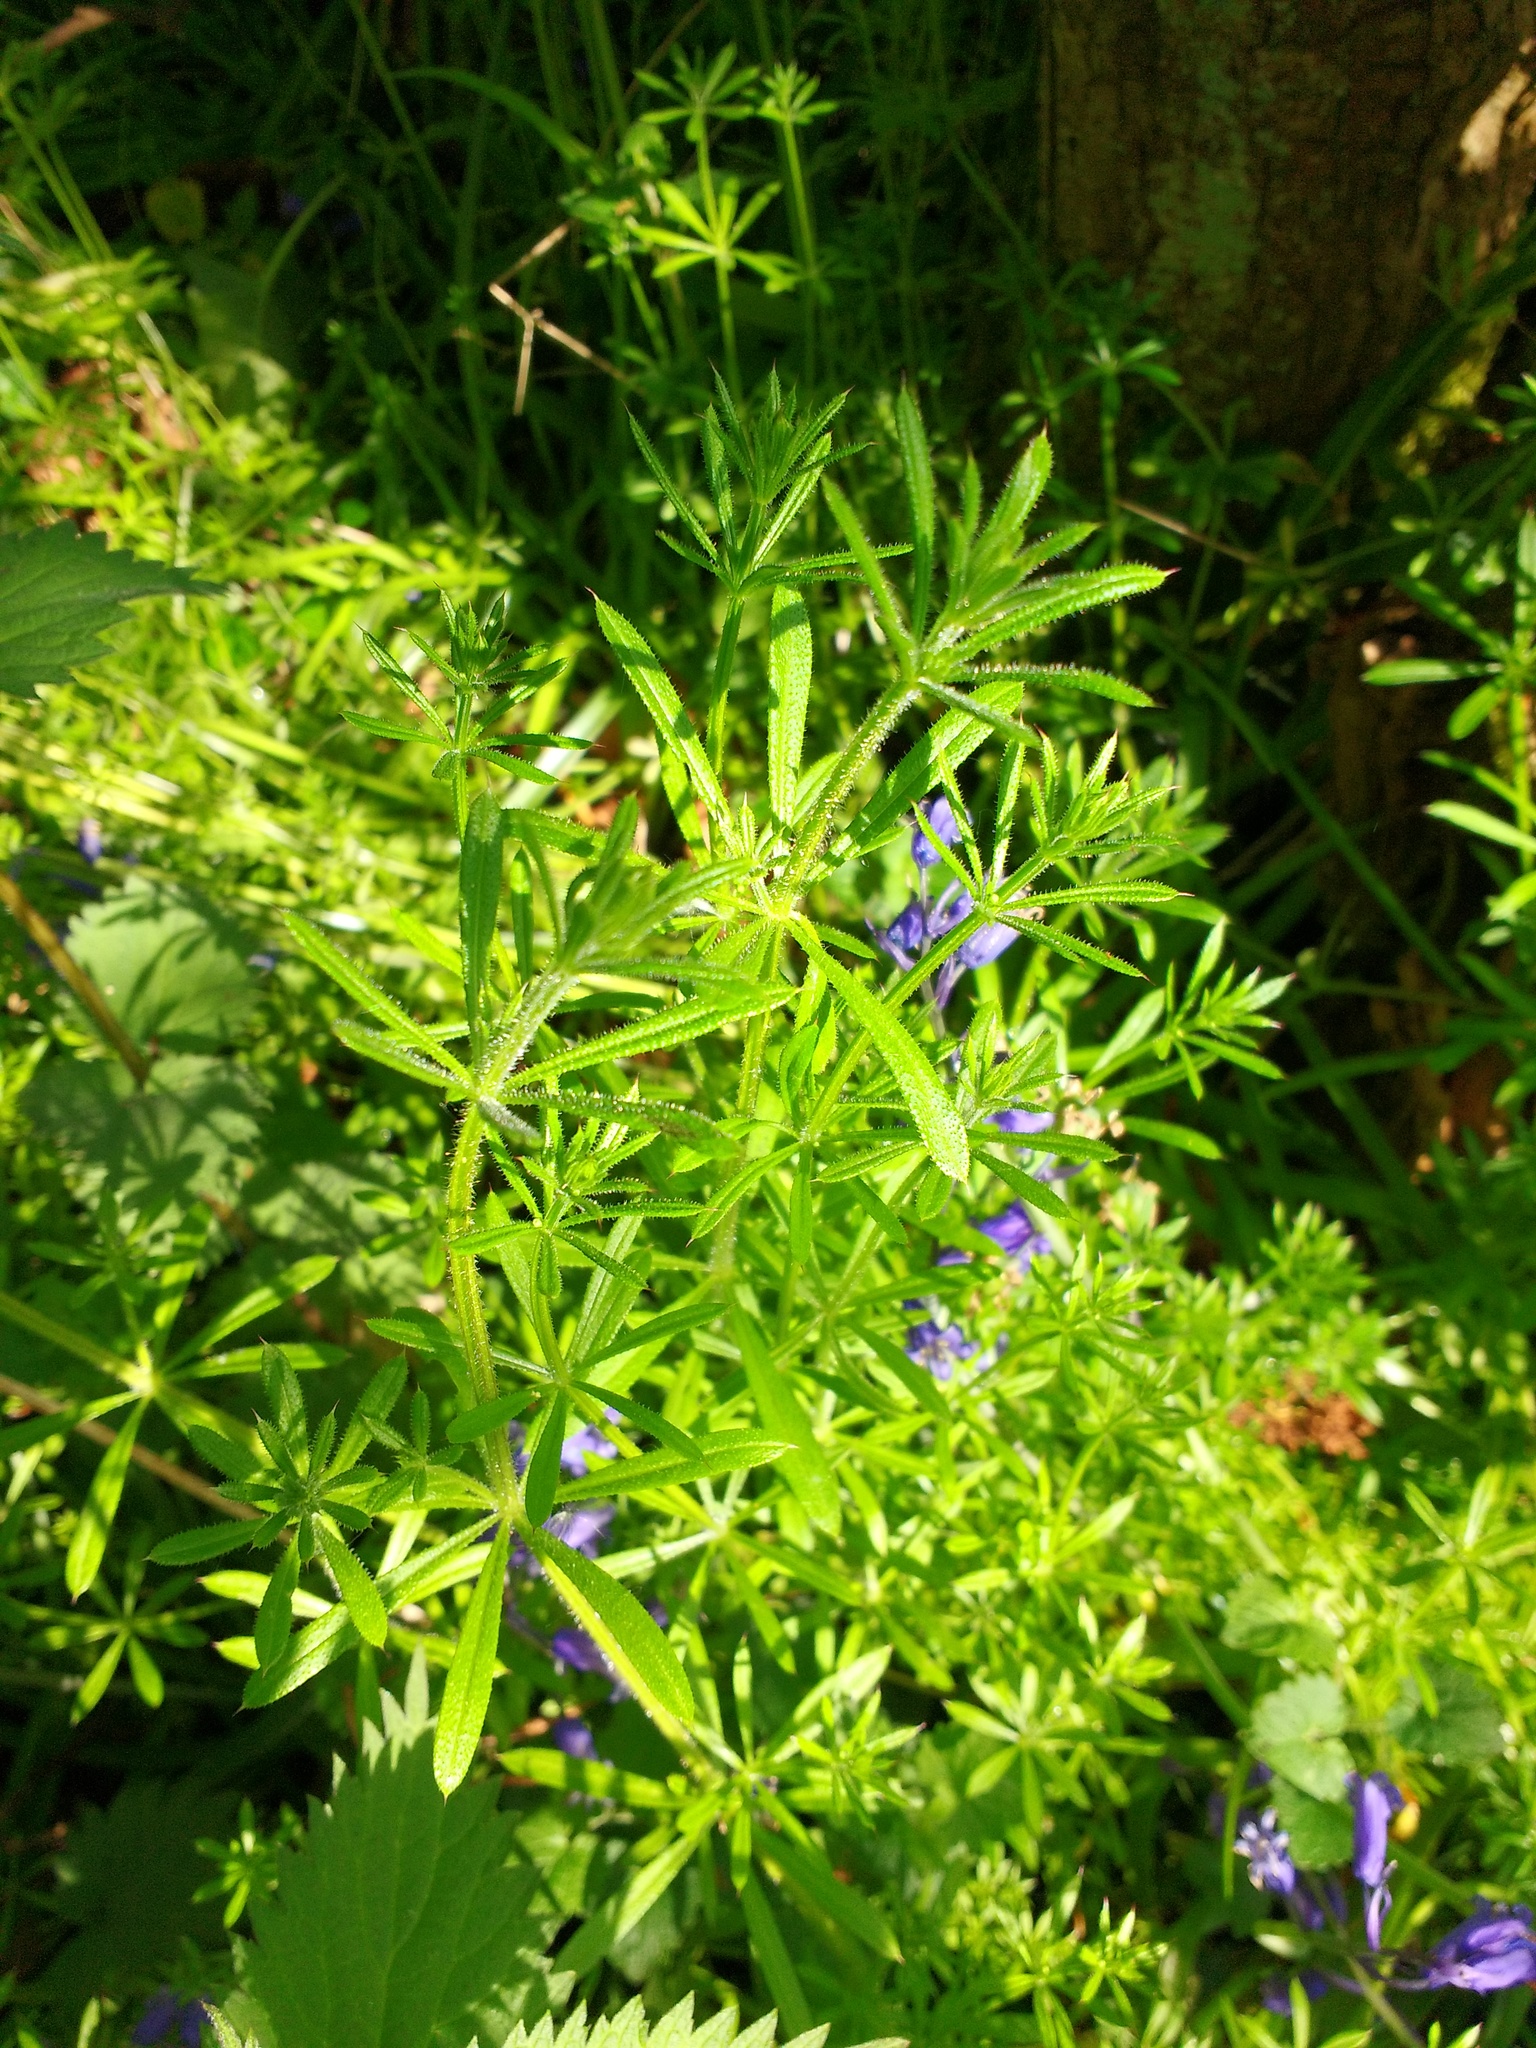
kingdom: Plantae
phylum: Tracheophyta
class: Magnoliopsida
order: Gentianales
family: Rubiaceae
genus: Galium
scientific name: Galium aparine
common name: Cleavers
